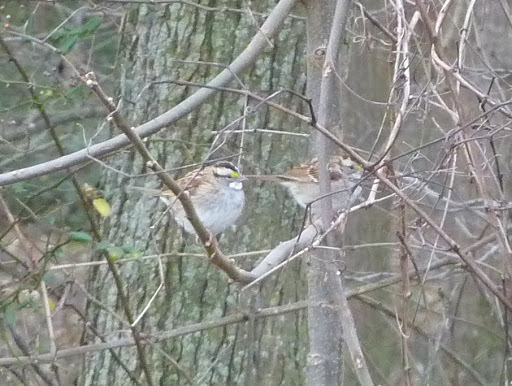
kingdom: Animalia
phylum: Chordata
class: Aves
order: Passeriformes
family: Passerellidae
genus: Zonotrichia
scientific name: Zonotrichia albicollis
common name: White-throated sparrow
